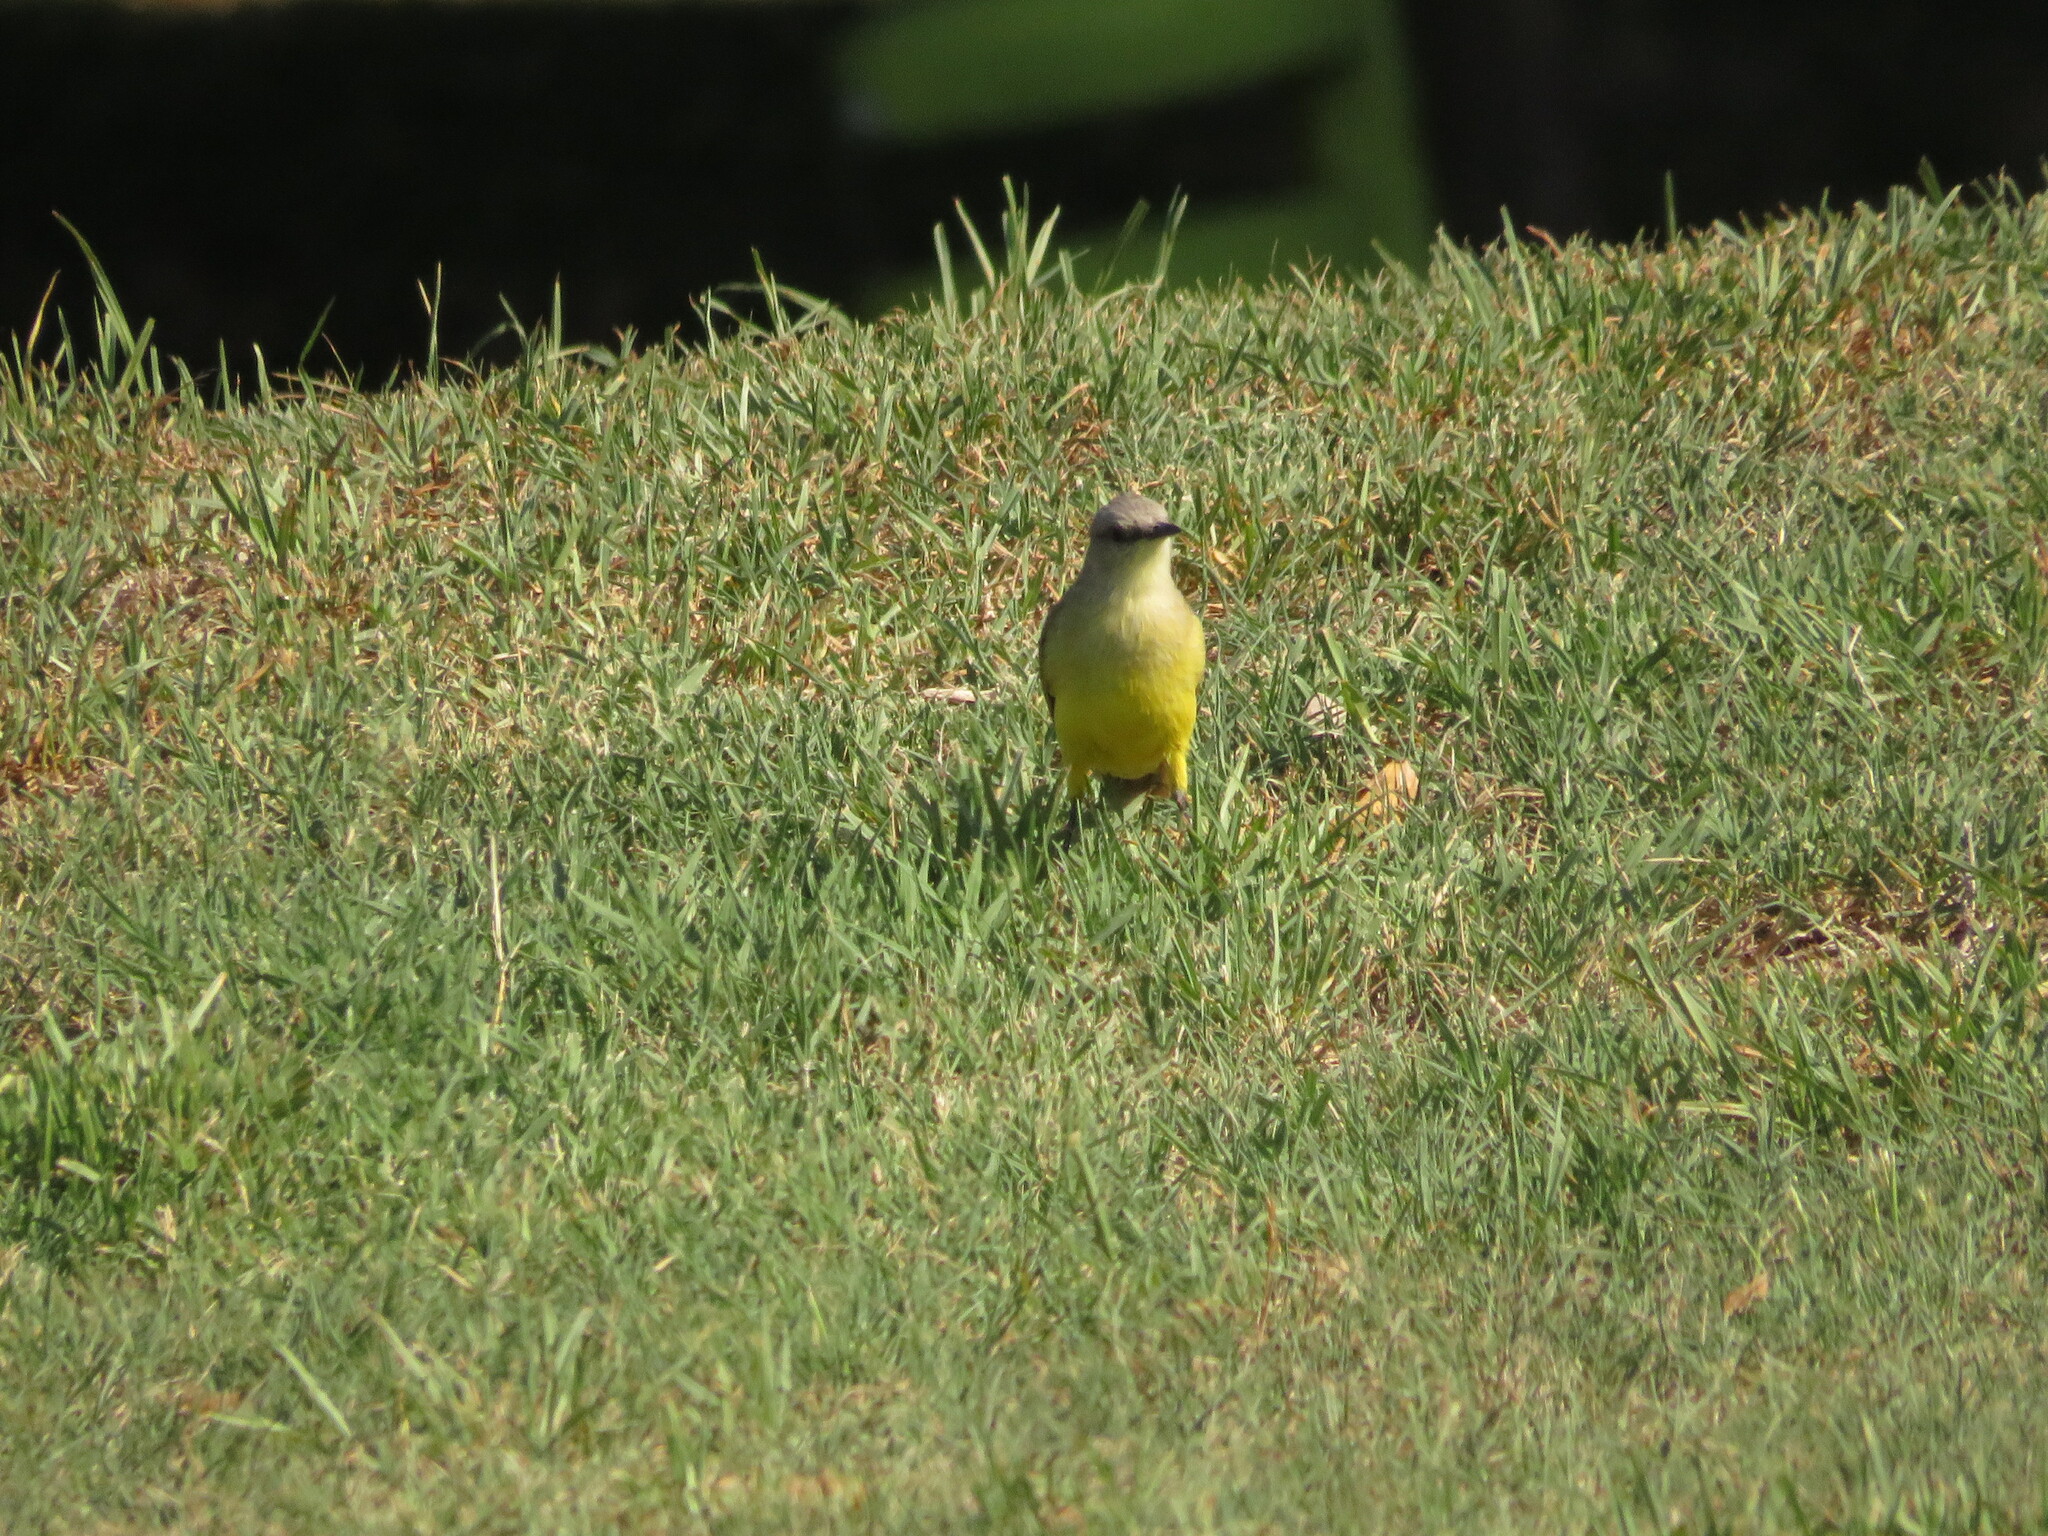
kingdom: Animalia
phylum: Chordata
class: Aves
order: Passeriformes
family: Tyrannidae
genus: Machetornis
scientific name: Machetornis rixosa
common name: Cattle tyrant
